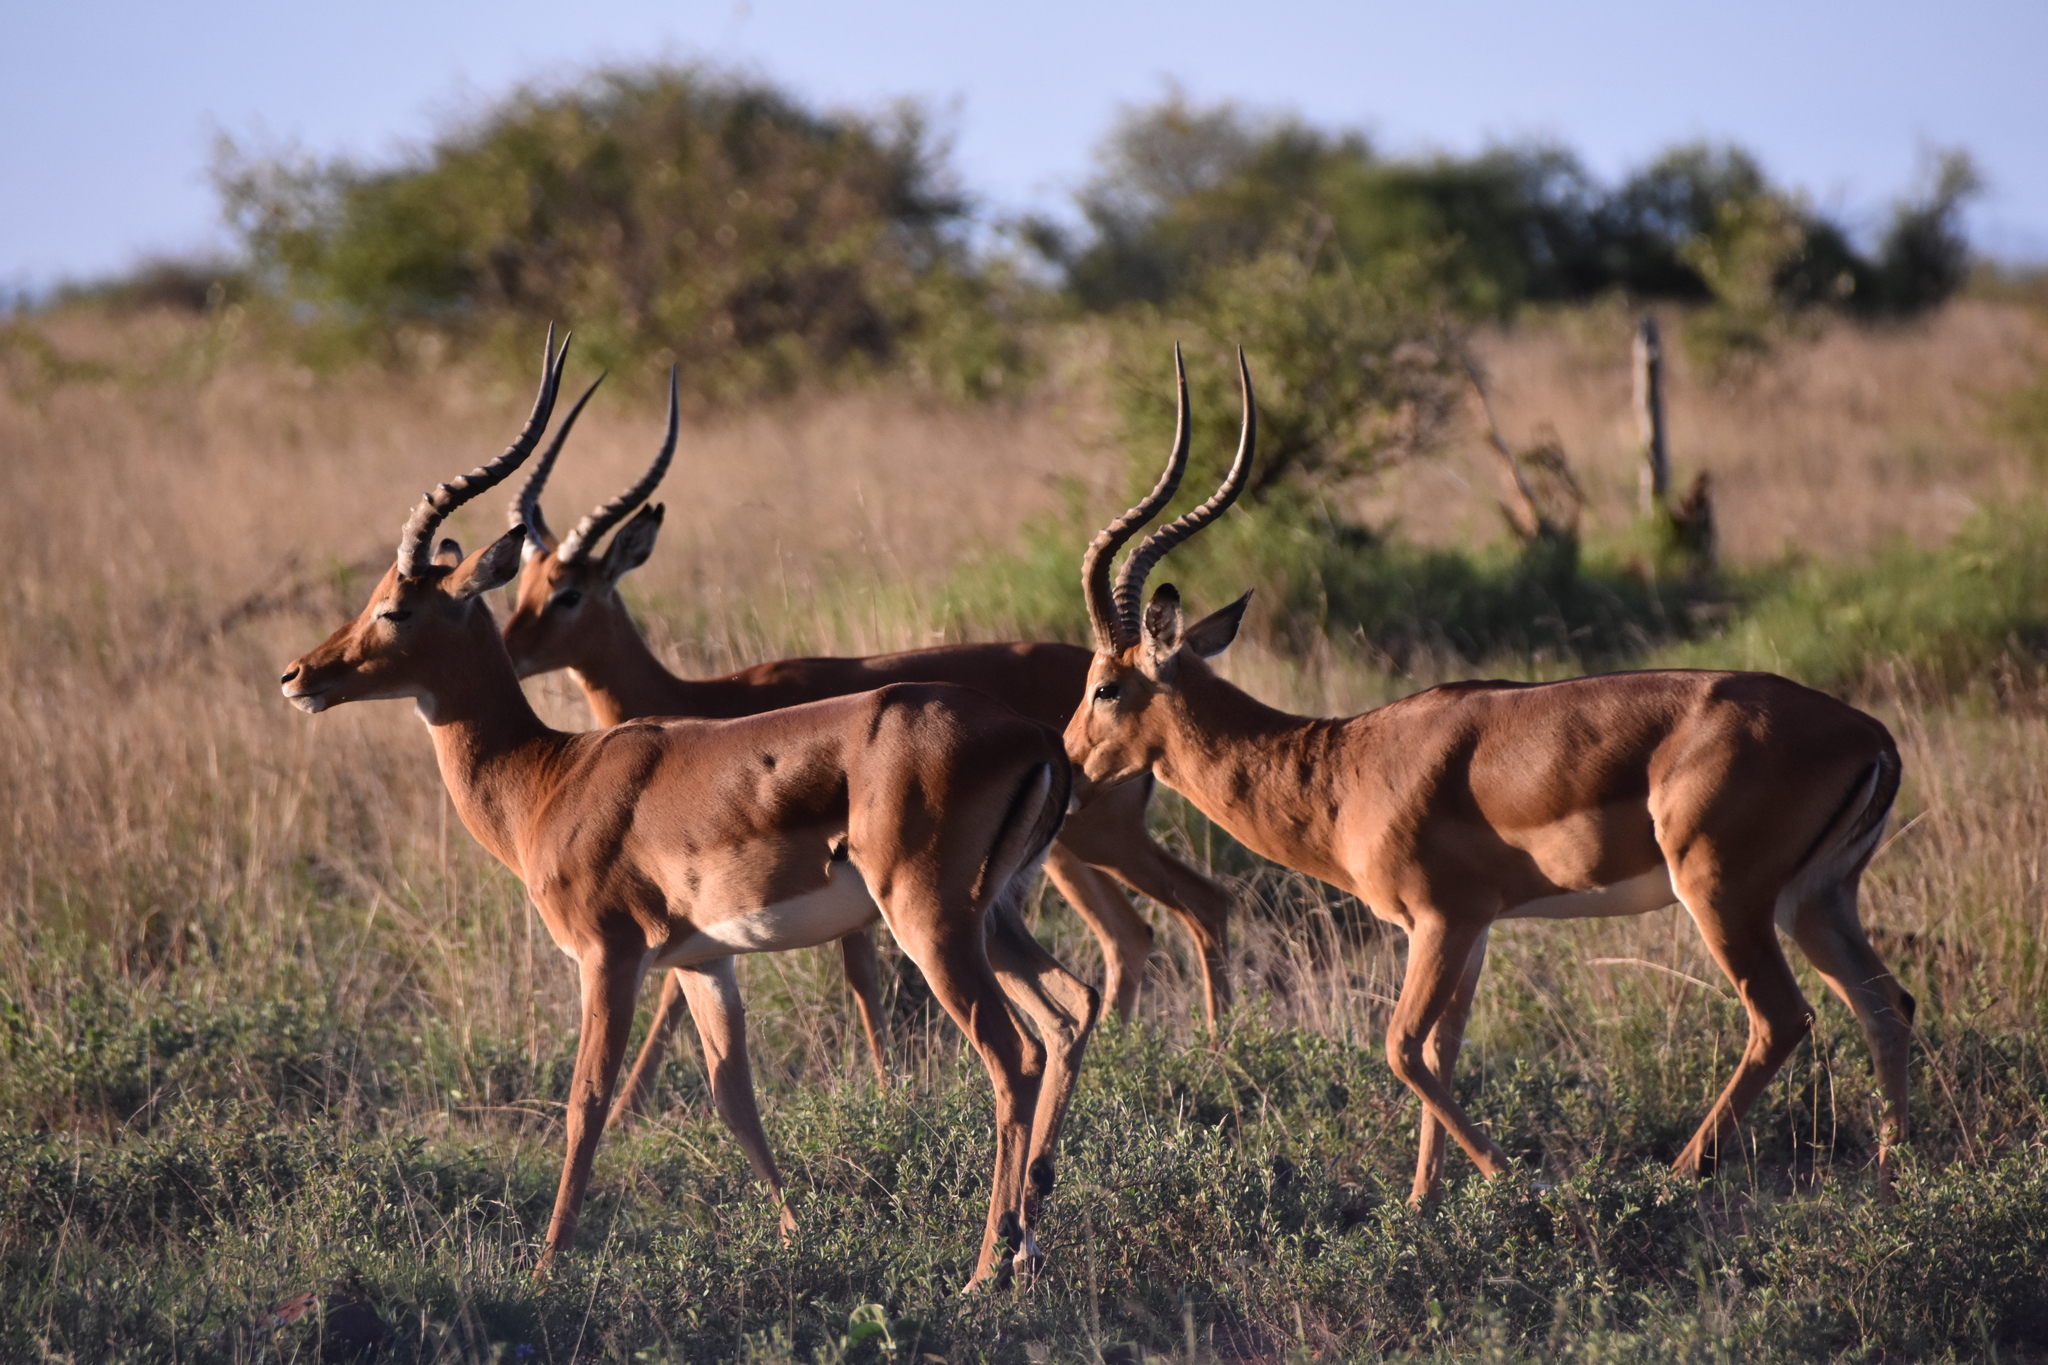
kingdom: Animalia
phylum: Chordata
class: Mammalia
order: Artiodactyla
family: Bovidae
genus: Aepyceros
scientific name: Aepyceros melampus
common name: Impala
